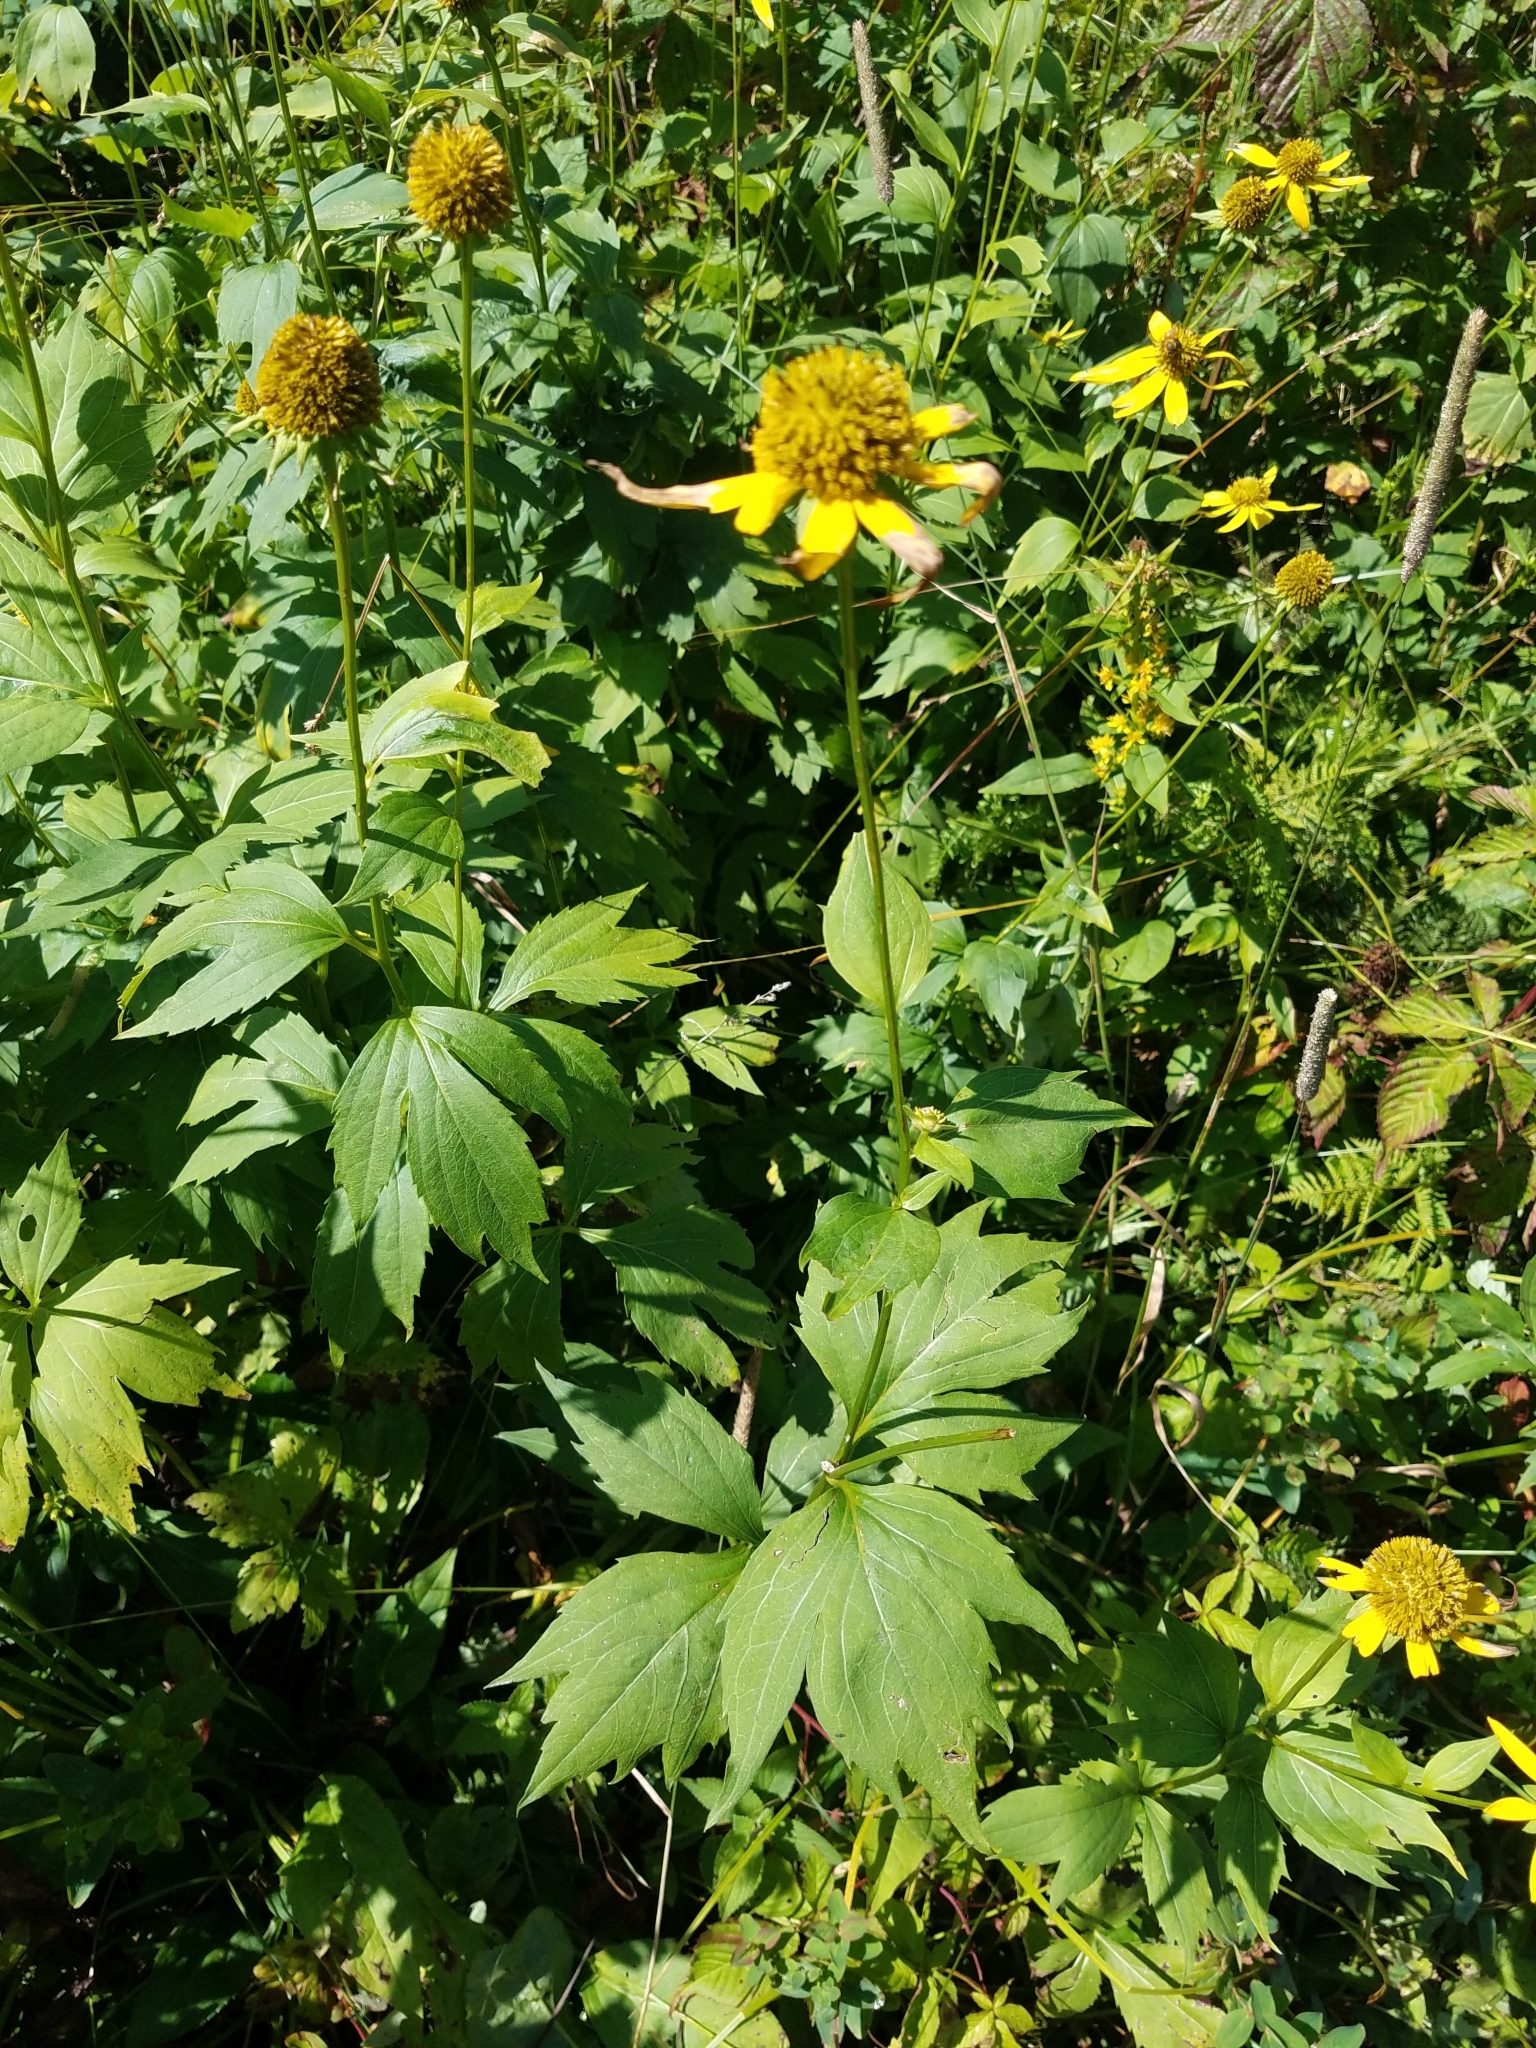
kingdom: Plantae
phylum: Tracheophyta
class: Magnoliopsida
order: Asterales
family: Asteraceae
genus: Rudbeckia
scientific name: Rudbeckia laciniata
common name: Coneflower
